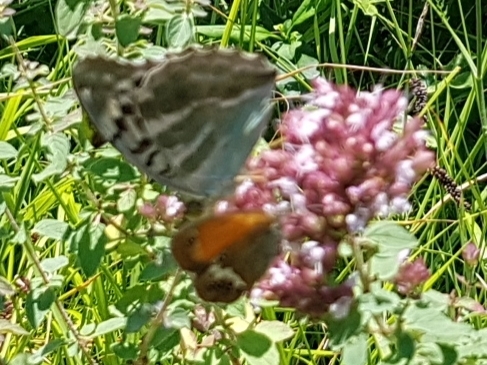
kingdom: Animalia
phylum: Arthropoda
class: Insecta
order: Lepidoptera
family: Nymphalidae
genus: Argynnis
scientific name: Argynnis paphia
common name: Silver-washed fritillary
